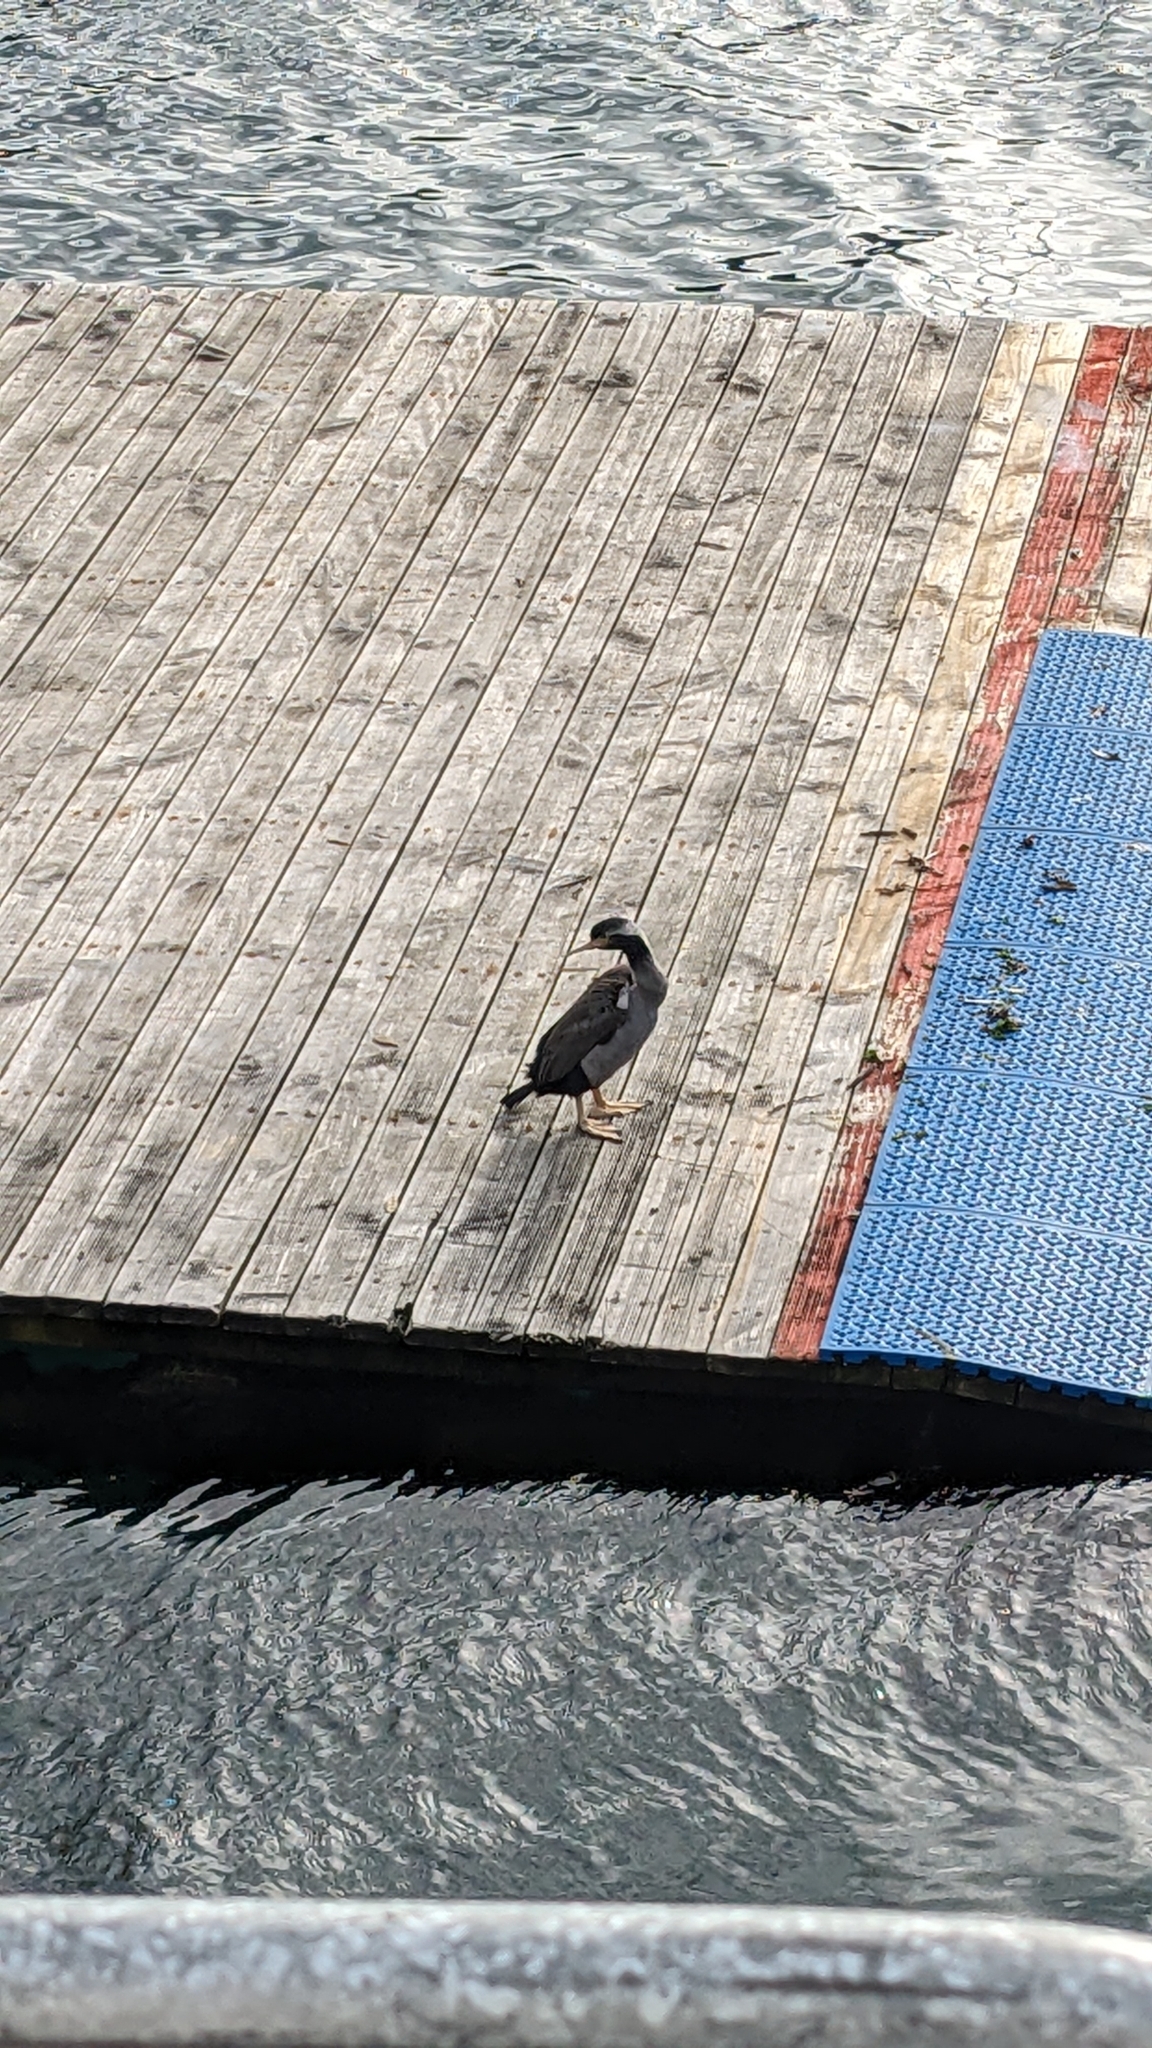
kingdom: Animalia
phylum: Chordata
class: Aves
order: Suliformes
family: Phalacrocoracidae
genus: Phalacrocorax
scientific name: Phalacrocorax punctatus
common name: Spotted shag
